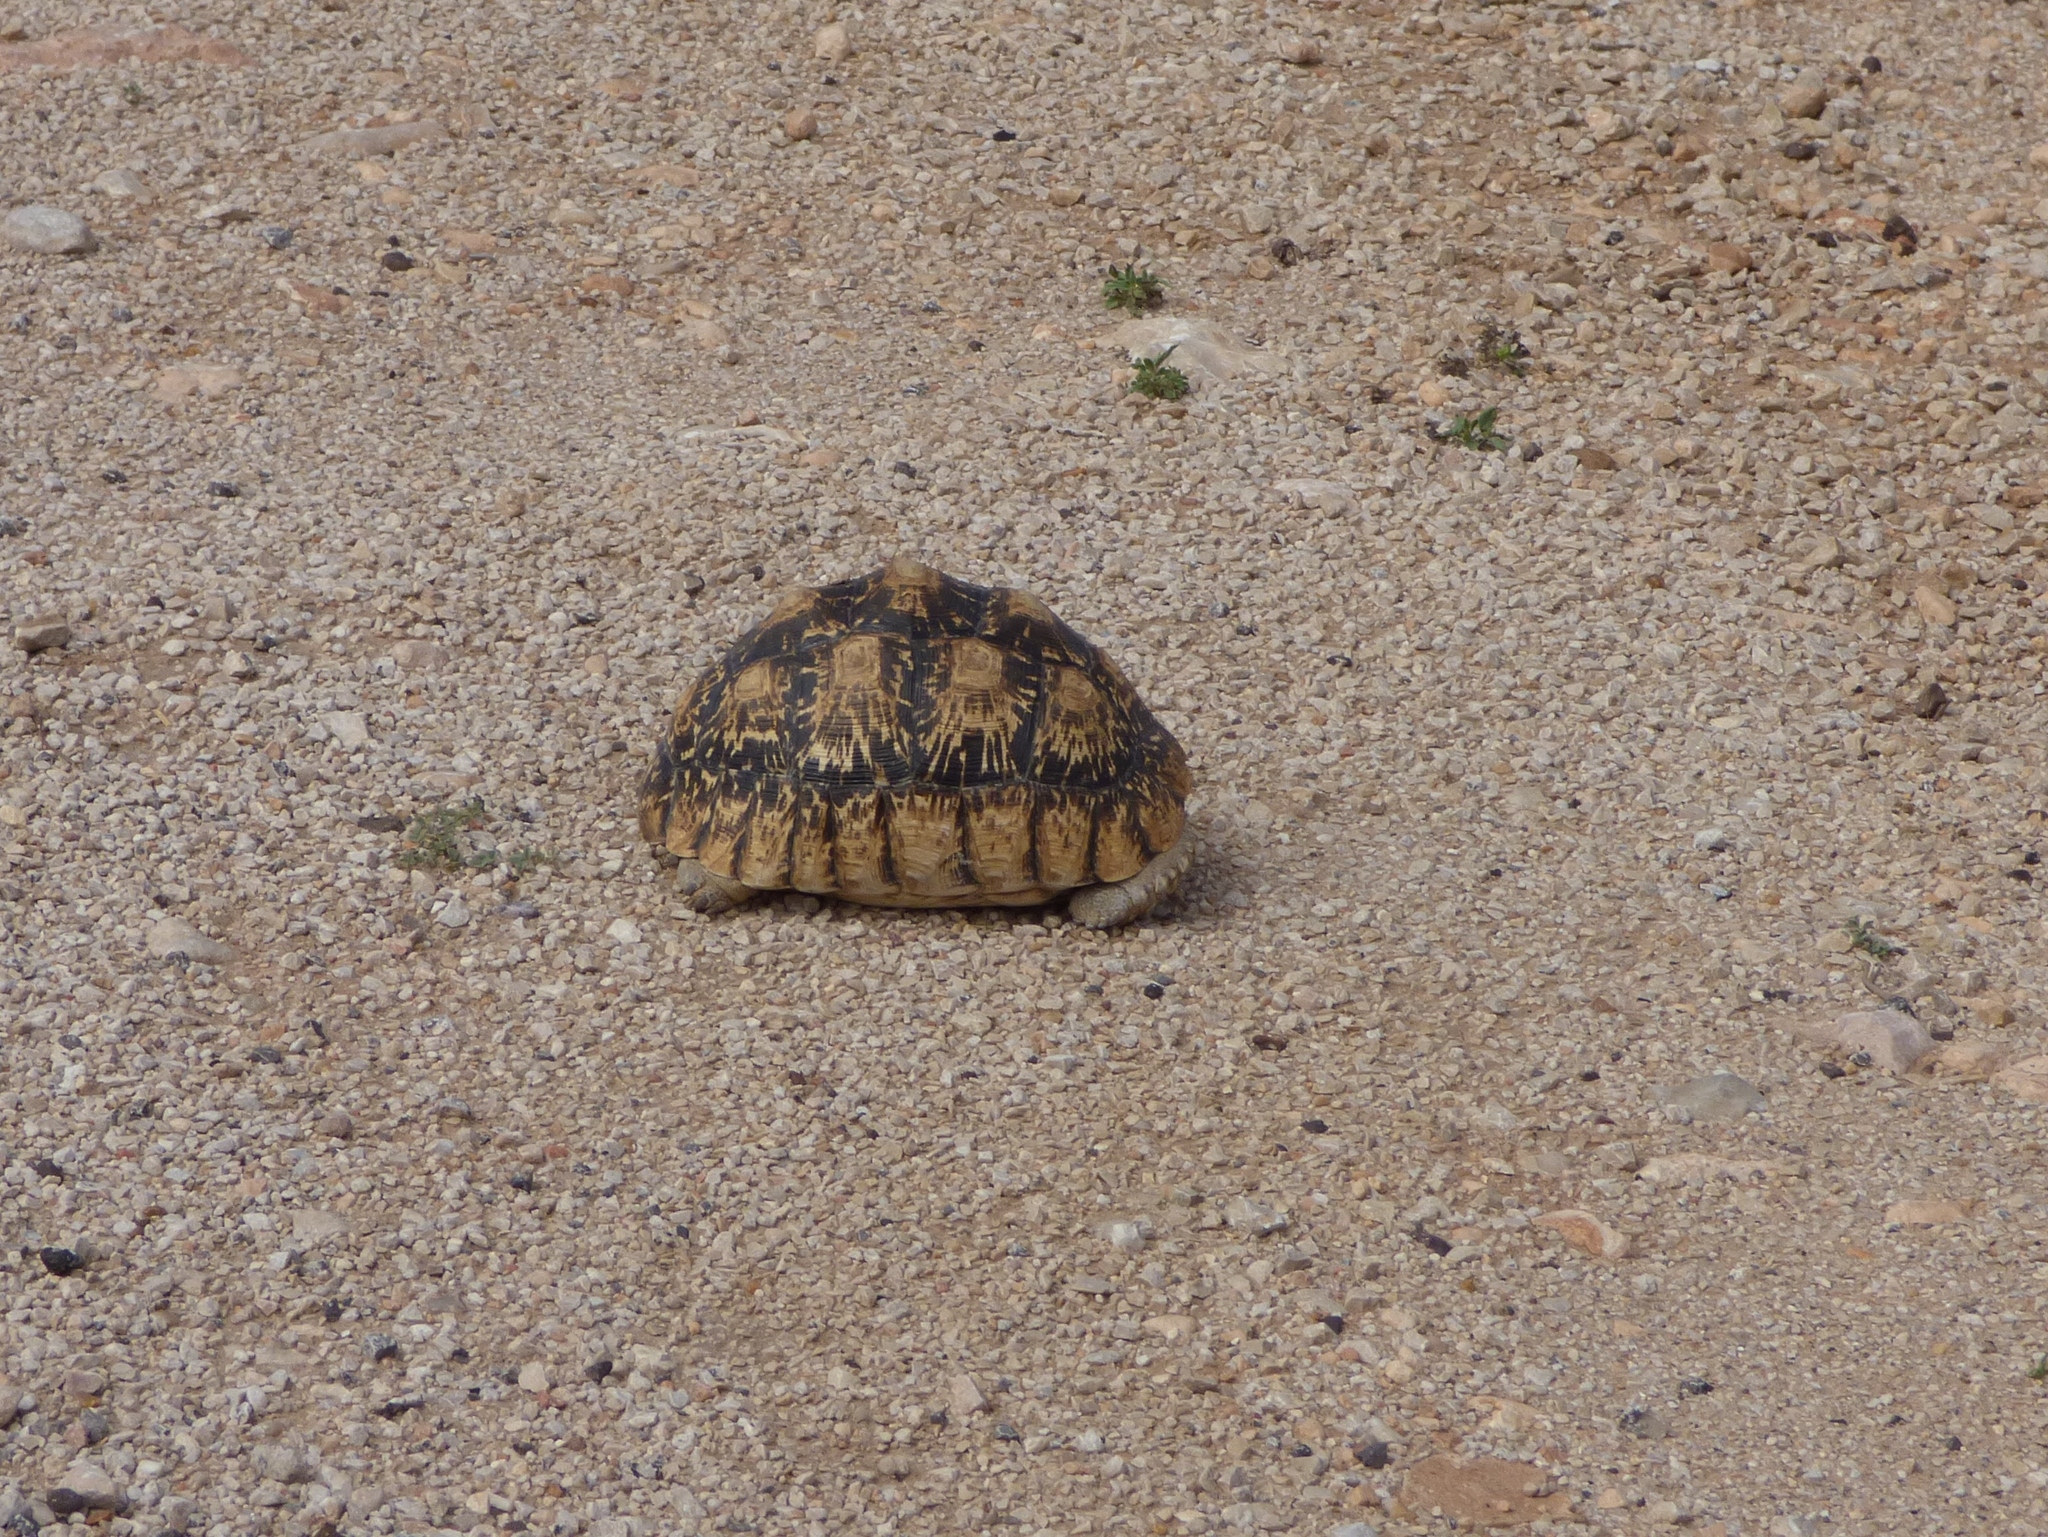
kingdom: Animalia
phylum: Chordata
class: Testudines
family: Testudinidae
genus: Stigmochelys
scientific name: Stigmochelys pardalis
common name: Leopard tortoise
